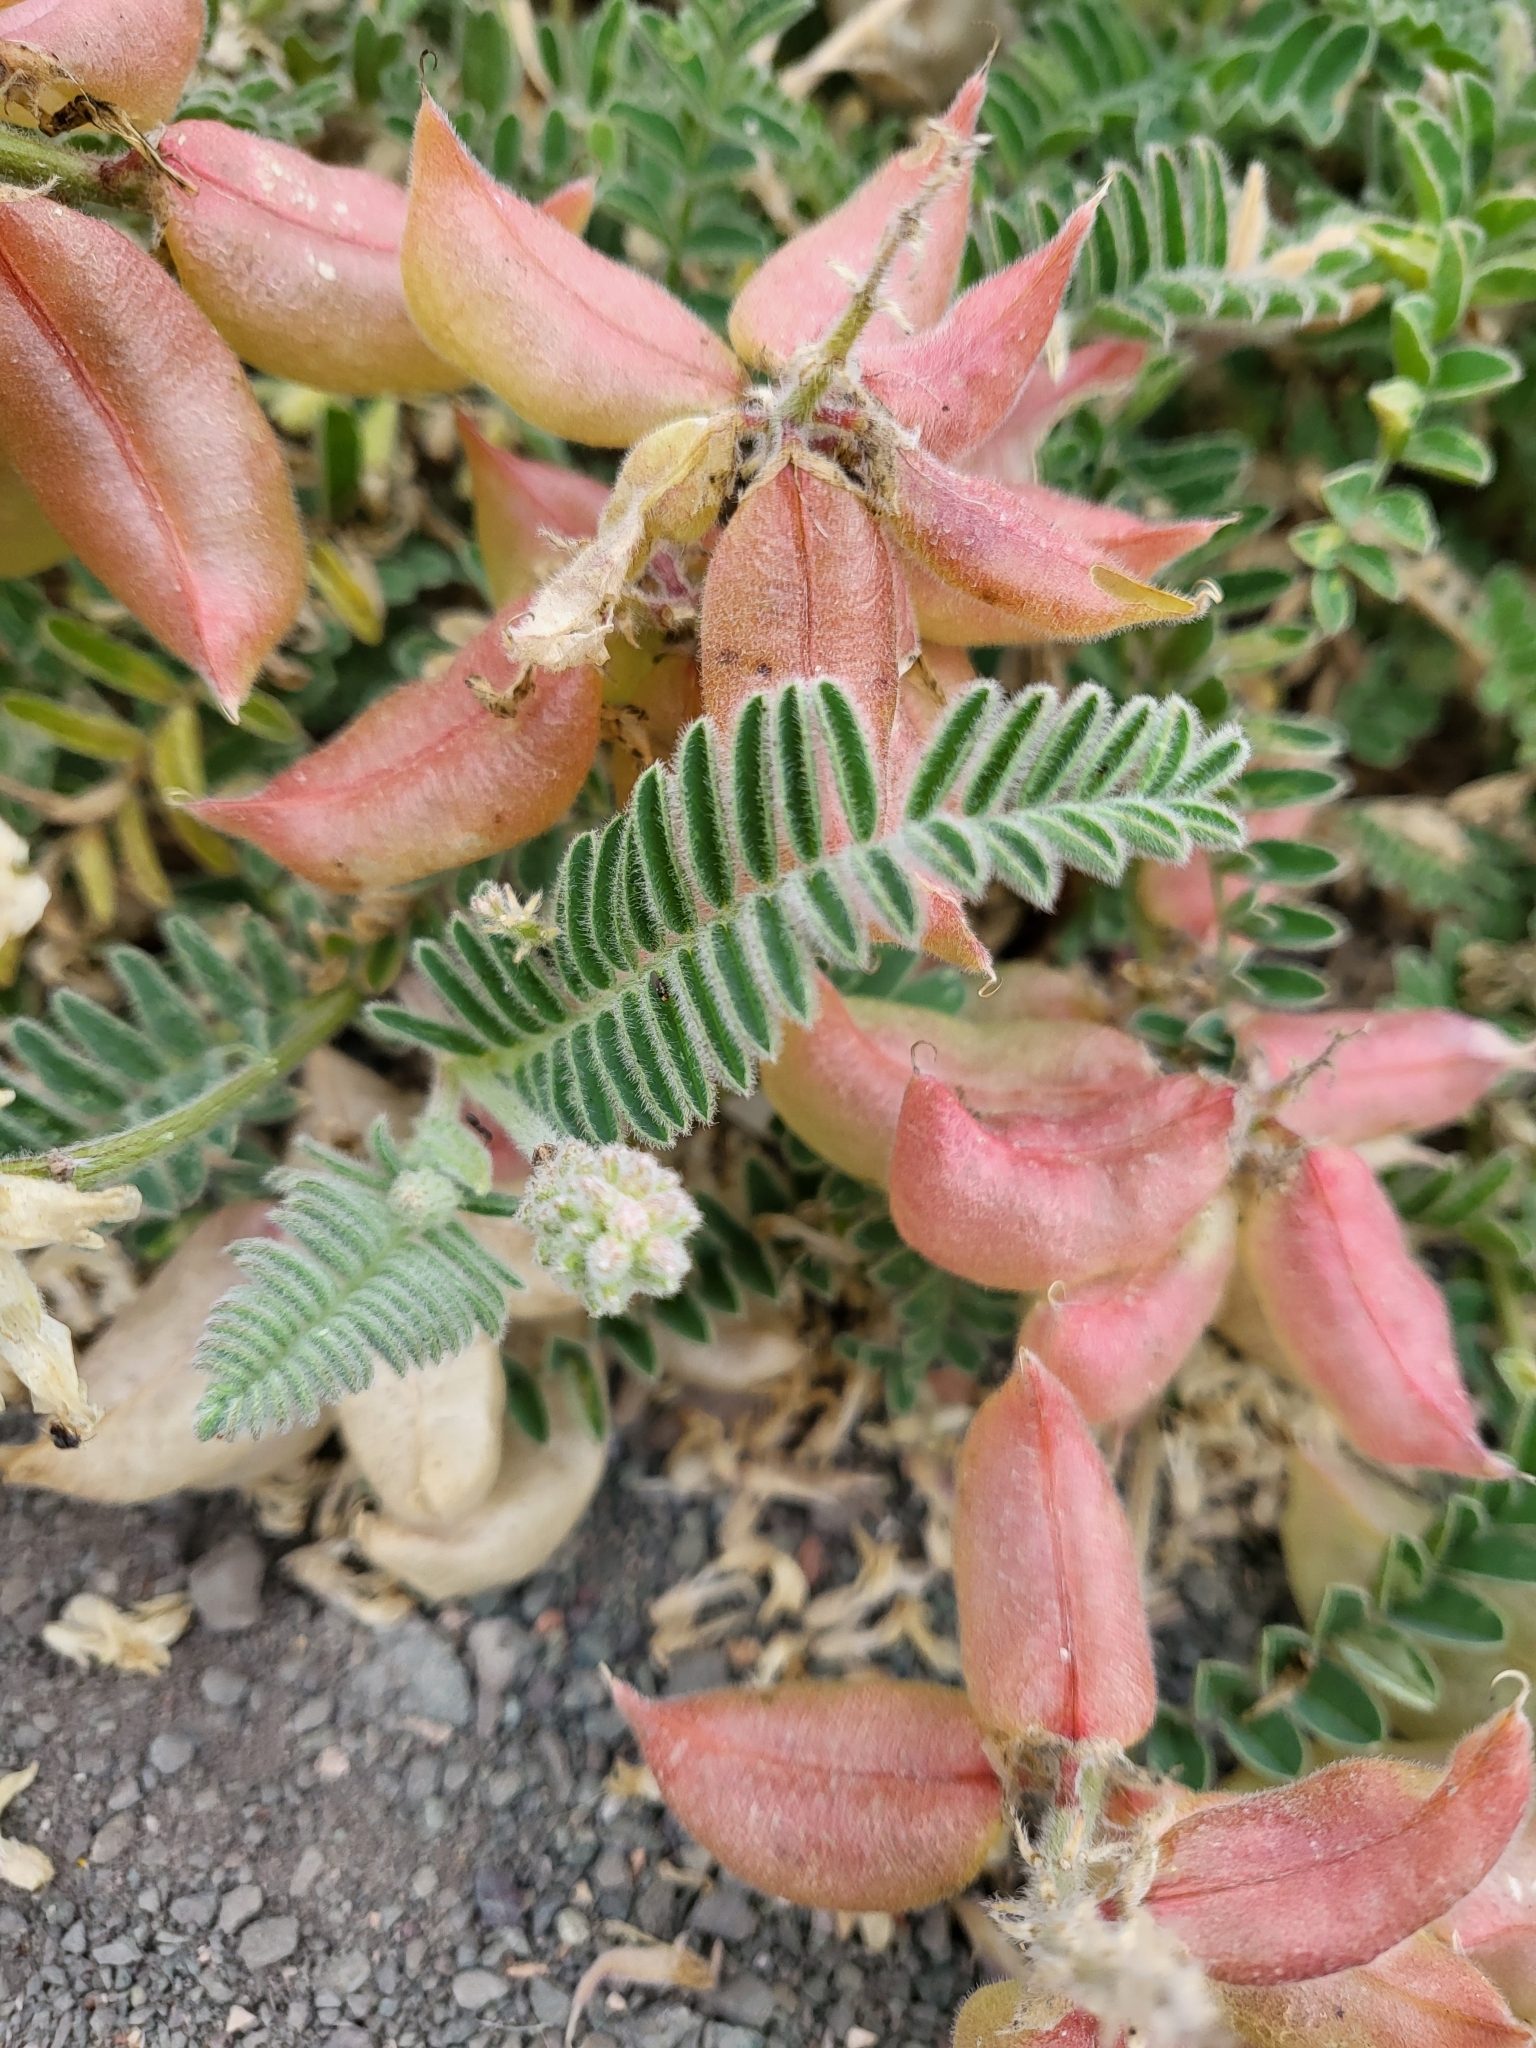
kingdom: Plantae
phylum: Tracheophyta
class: Magnoliopsida
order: Fabales
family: Fabaceae
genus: Astragalus
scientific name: Astragalus nuttallii
